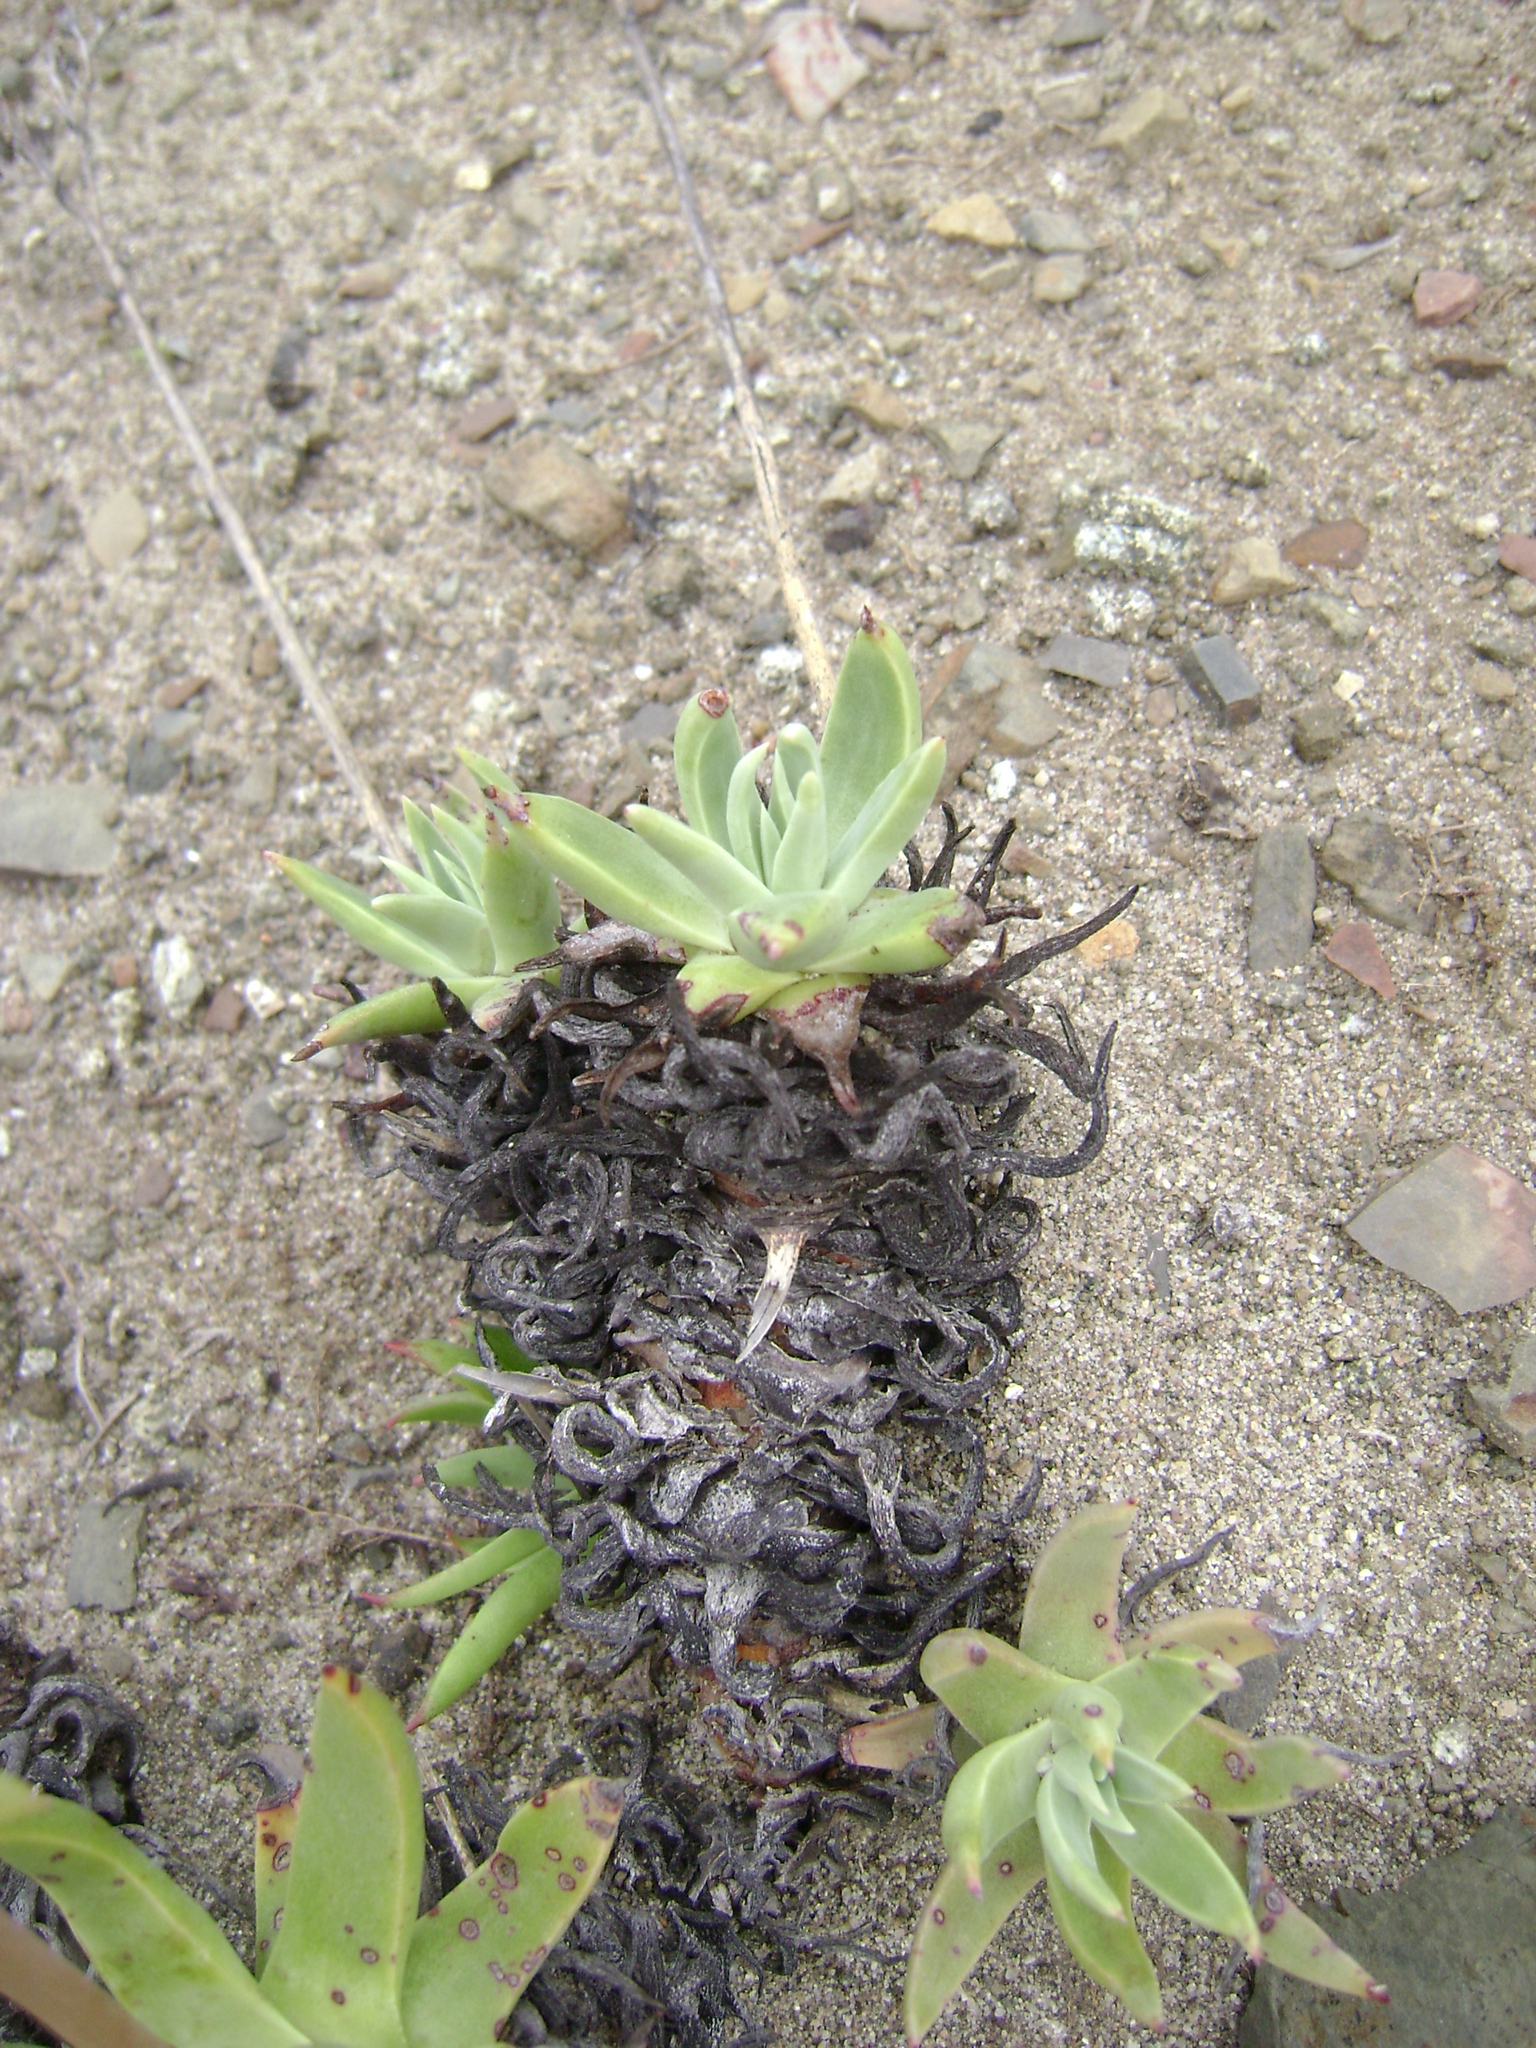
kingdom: Plantae
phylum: Tracheophyta
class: Magnoliopsida
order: Saxifragales
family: Crassulaceae
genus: Dudleya
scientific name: Dudleya caespitosa
